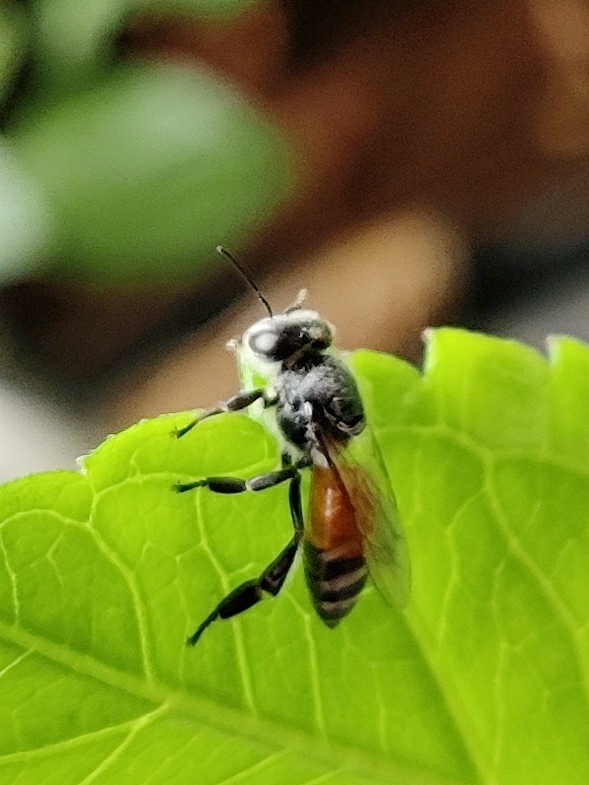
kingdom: Animalia
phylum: Arthropoda
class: Insecta
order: Hymenoptera
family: Apidae
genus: Apis
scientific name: Apis florea
